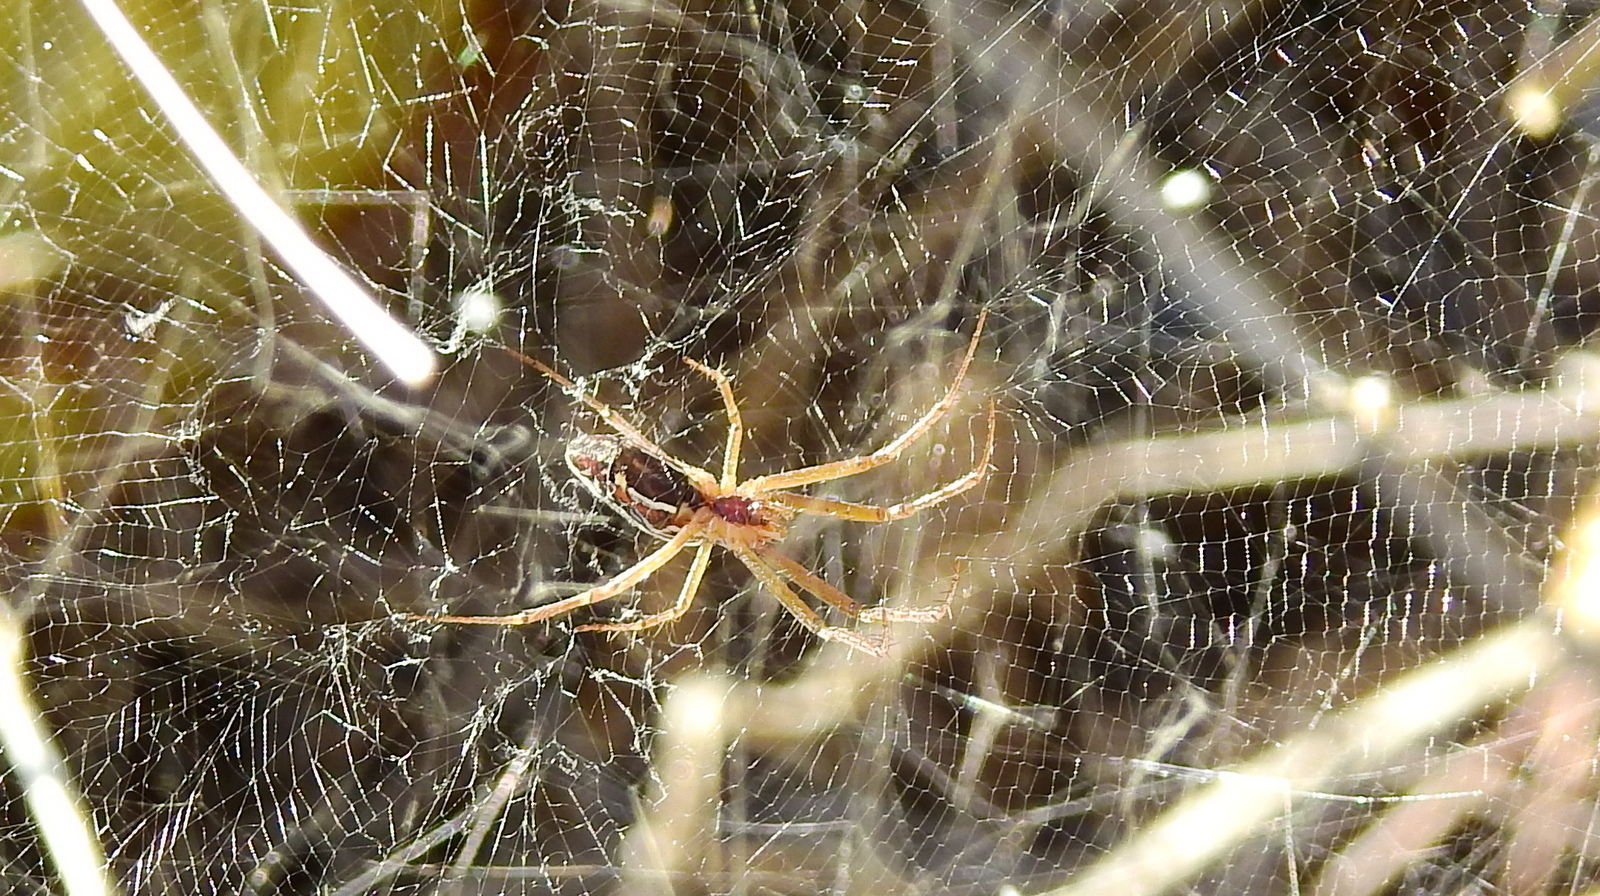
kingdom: Animalia
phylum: Arthropoda
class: Arachnida
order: Araneae
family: Araneidae
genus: Mecynogea
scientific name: Mecynogea
